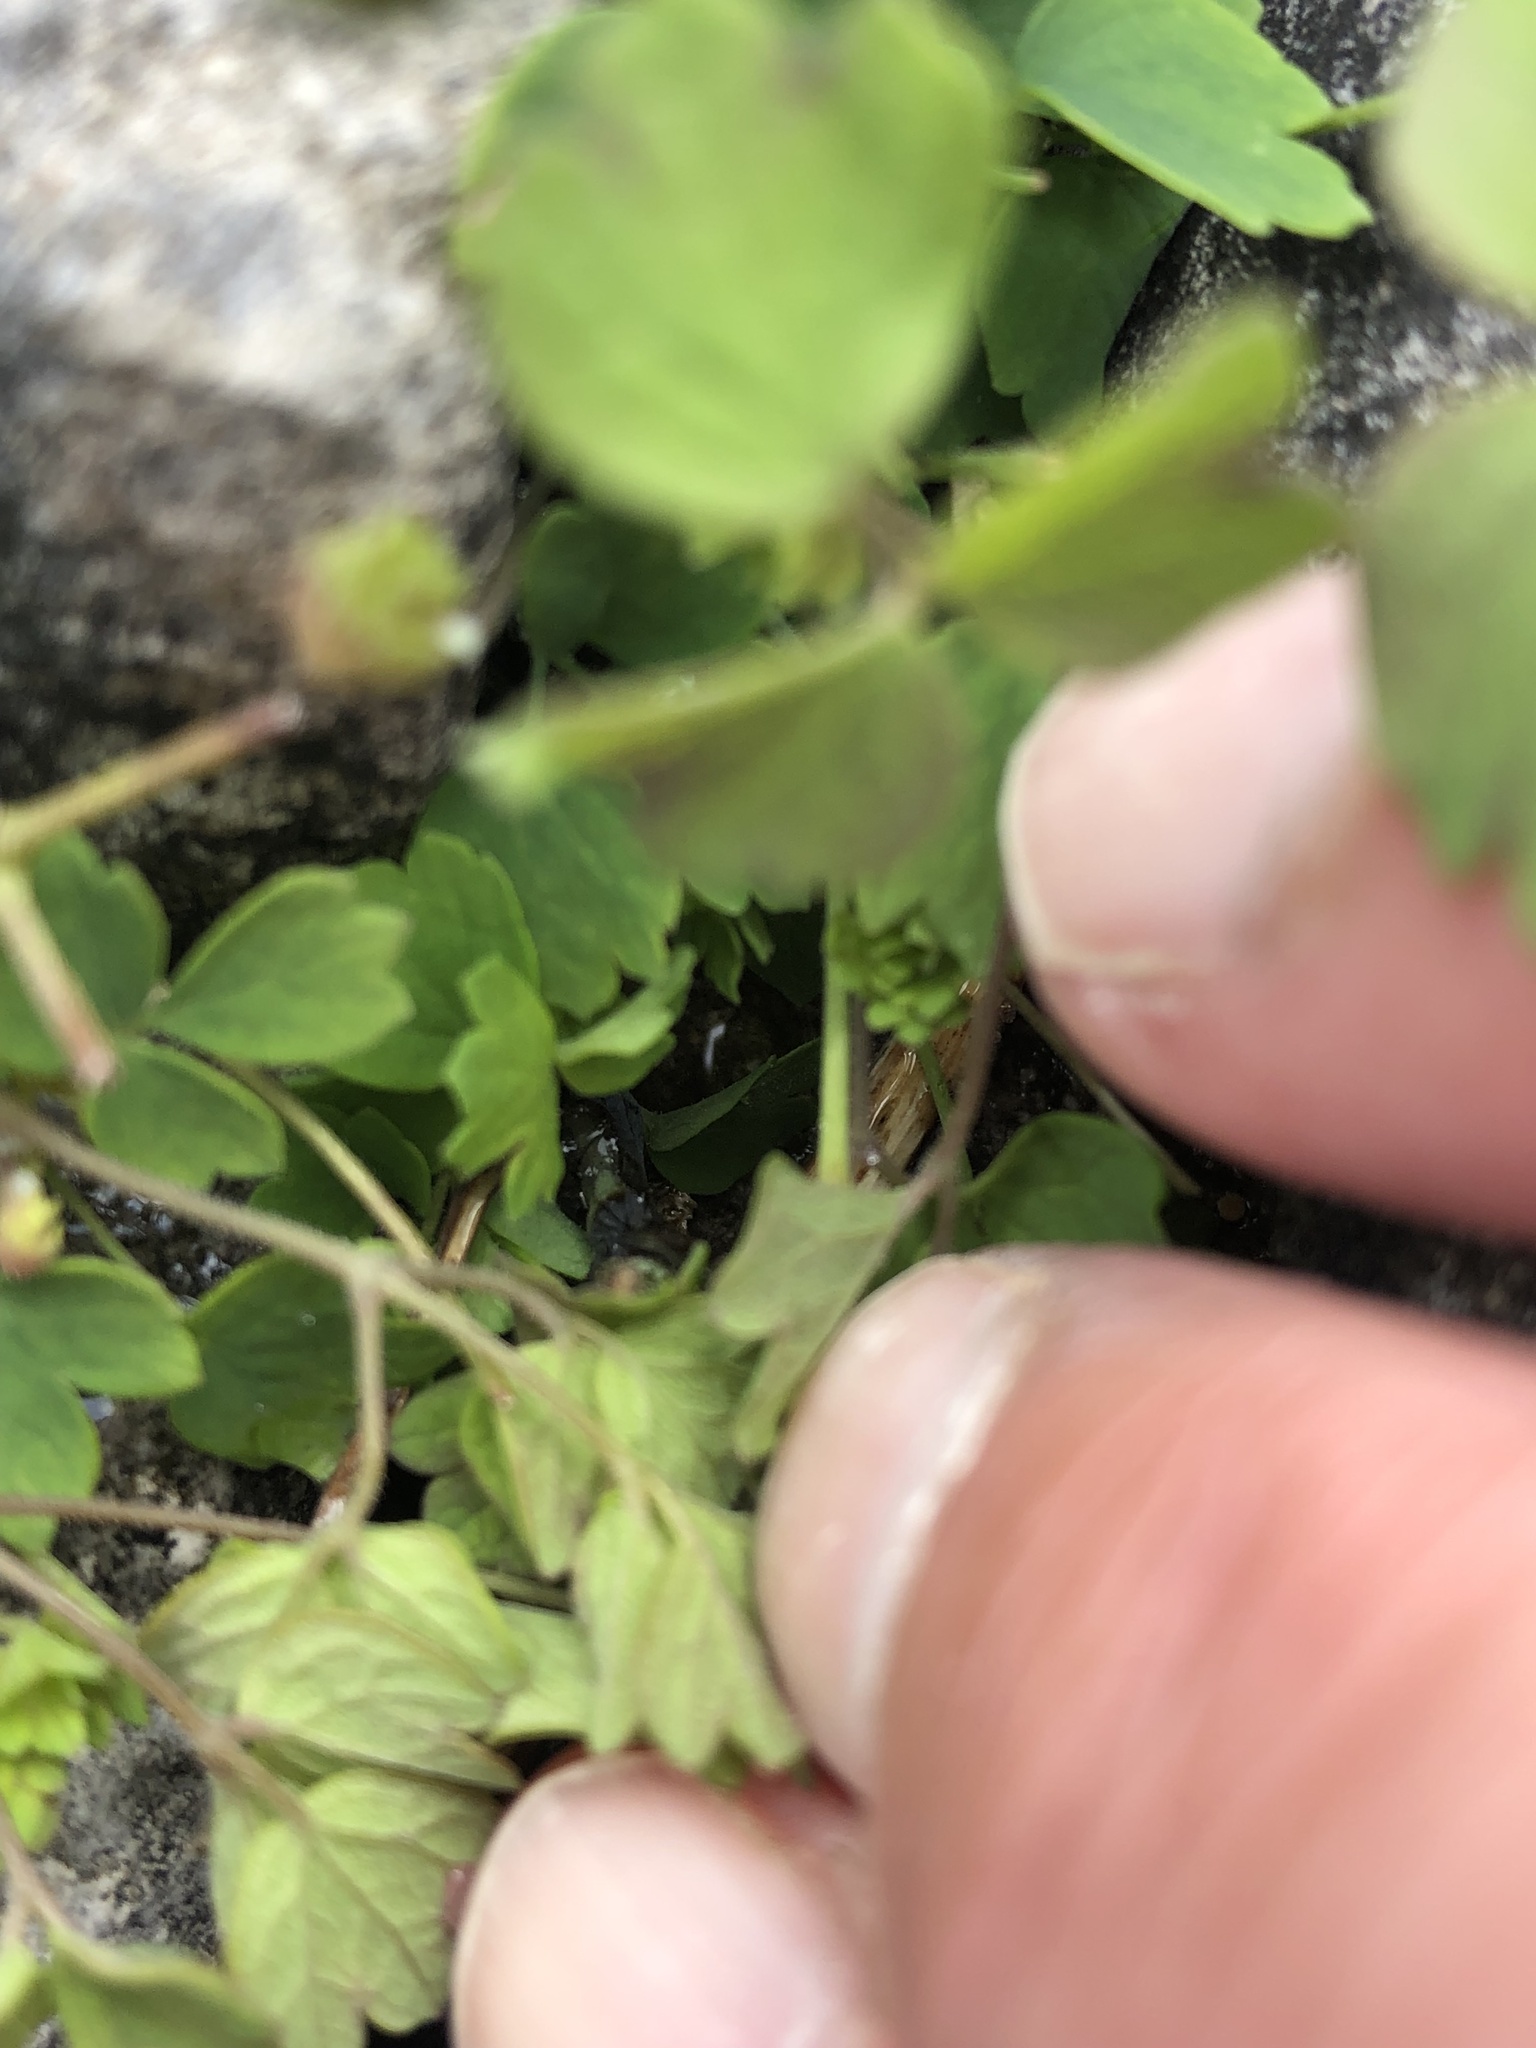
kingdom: Plantae
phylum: Tracheophyta
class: Magnoliopsida
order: Ranunculales
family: Ranunculaceae
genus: Thalictrum
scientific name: Thalictrum minus
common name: Lesser meadow-rue
